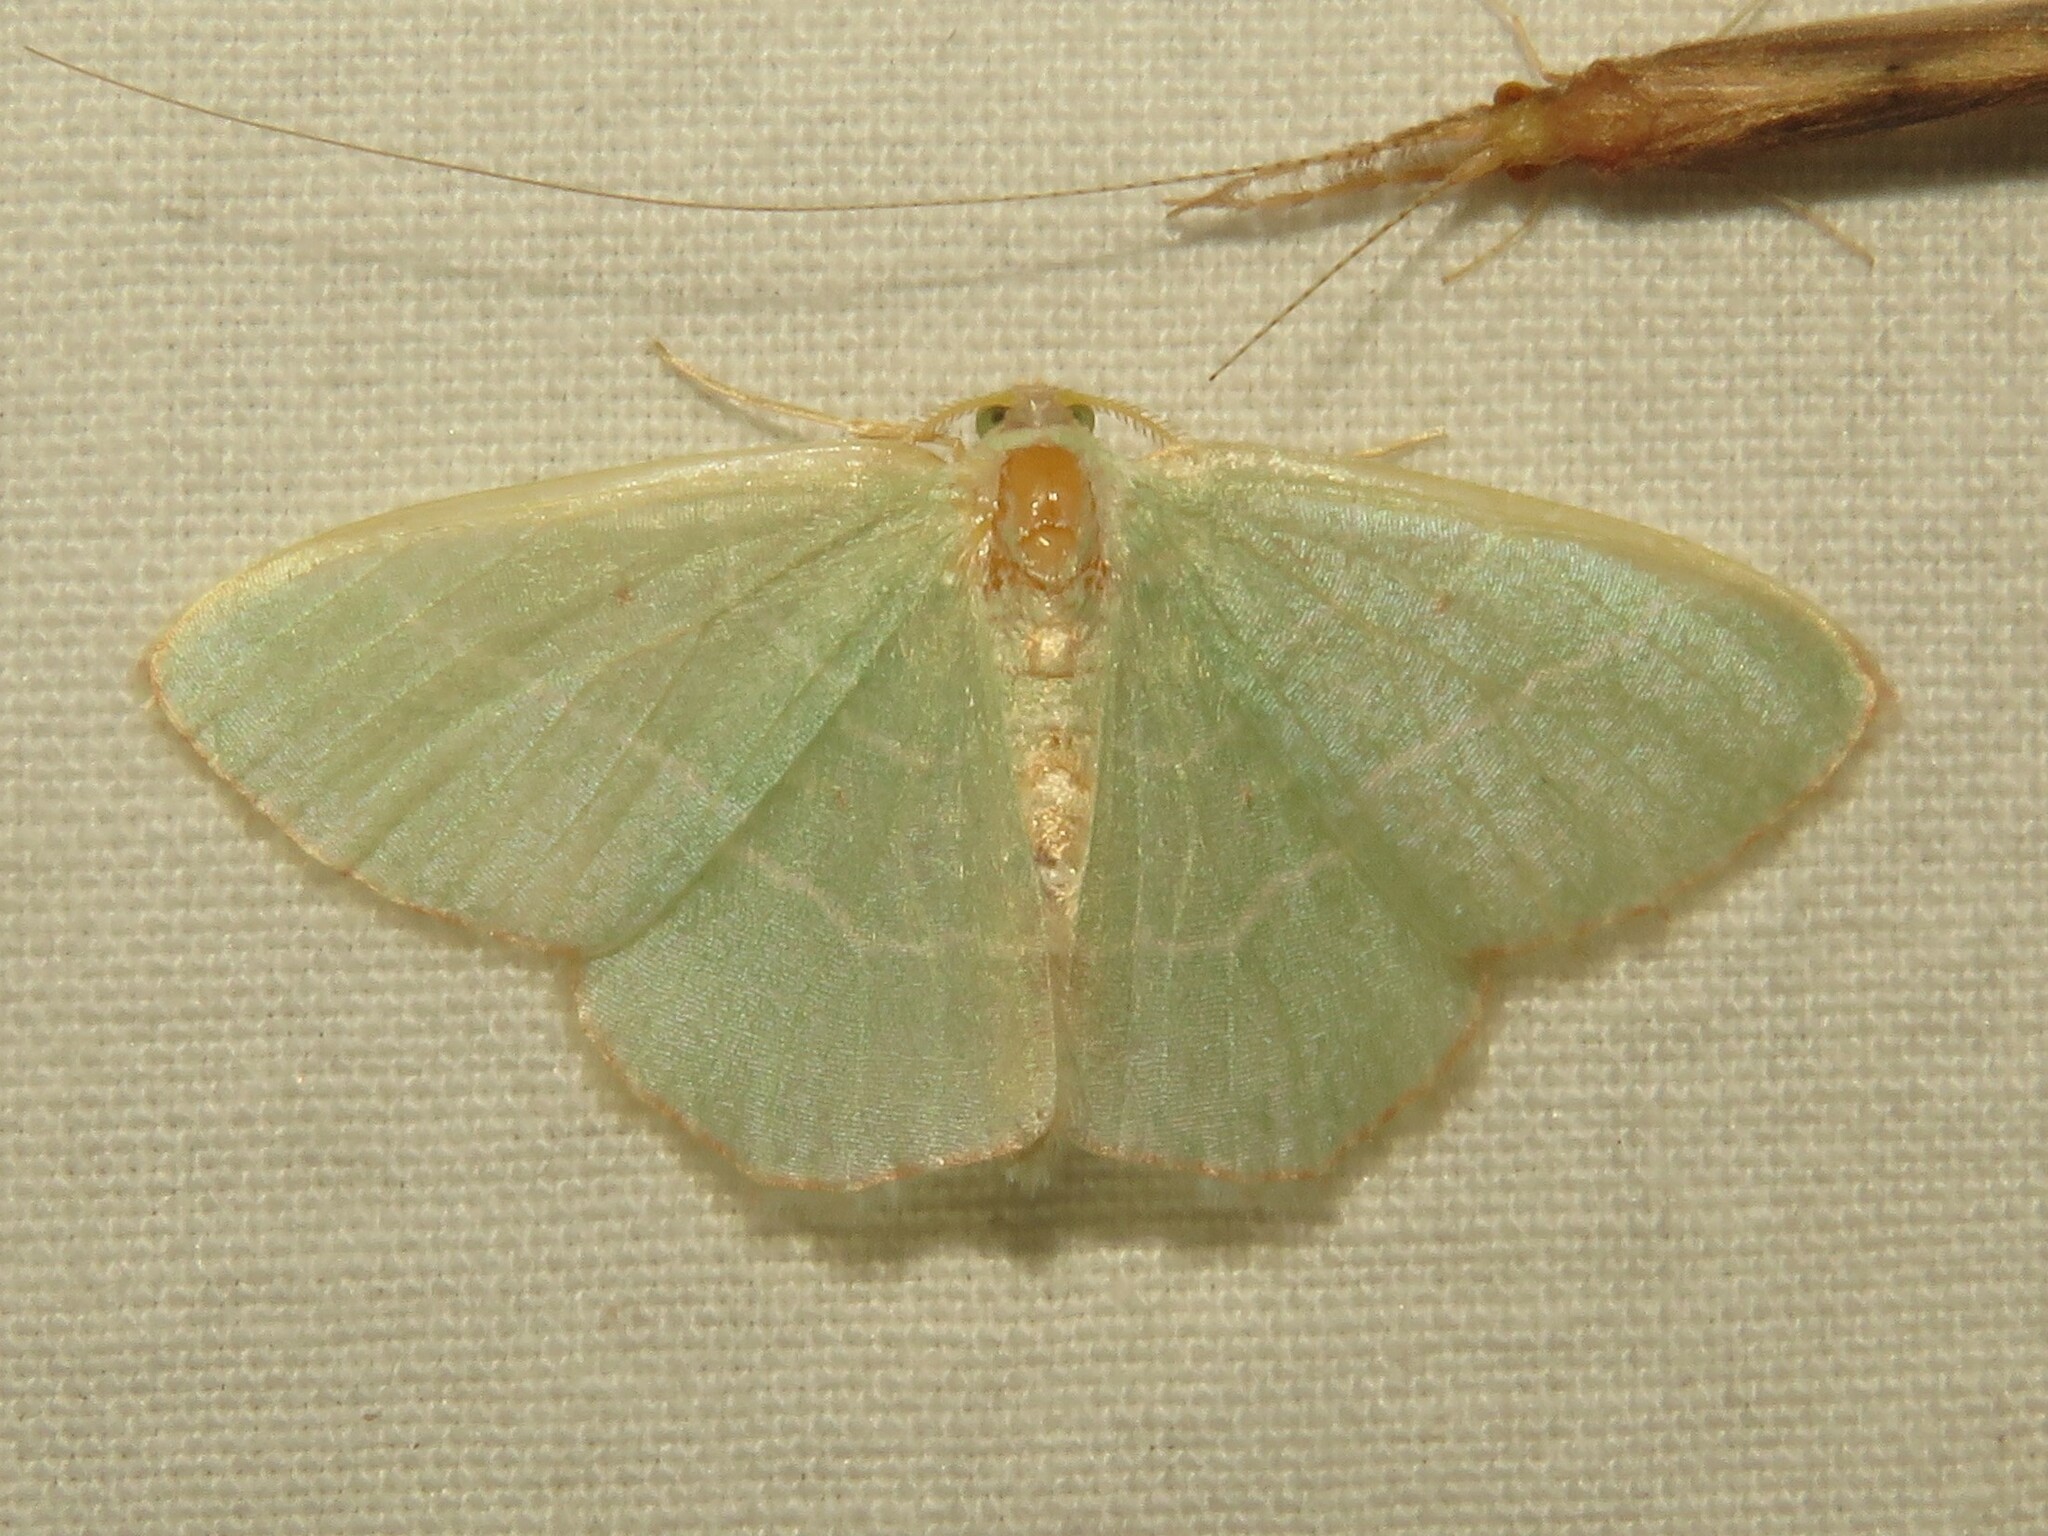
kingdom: Animalia
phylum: Arthropoda
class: Insecta
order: Lepidoptera
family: Geometridae
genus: Nemoria
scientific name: Nemoria bistriaria
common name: Red-fringed emerald
